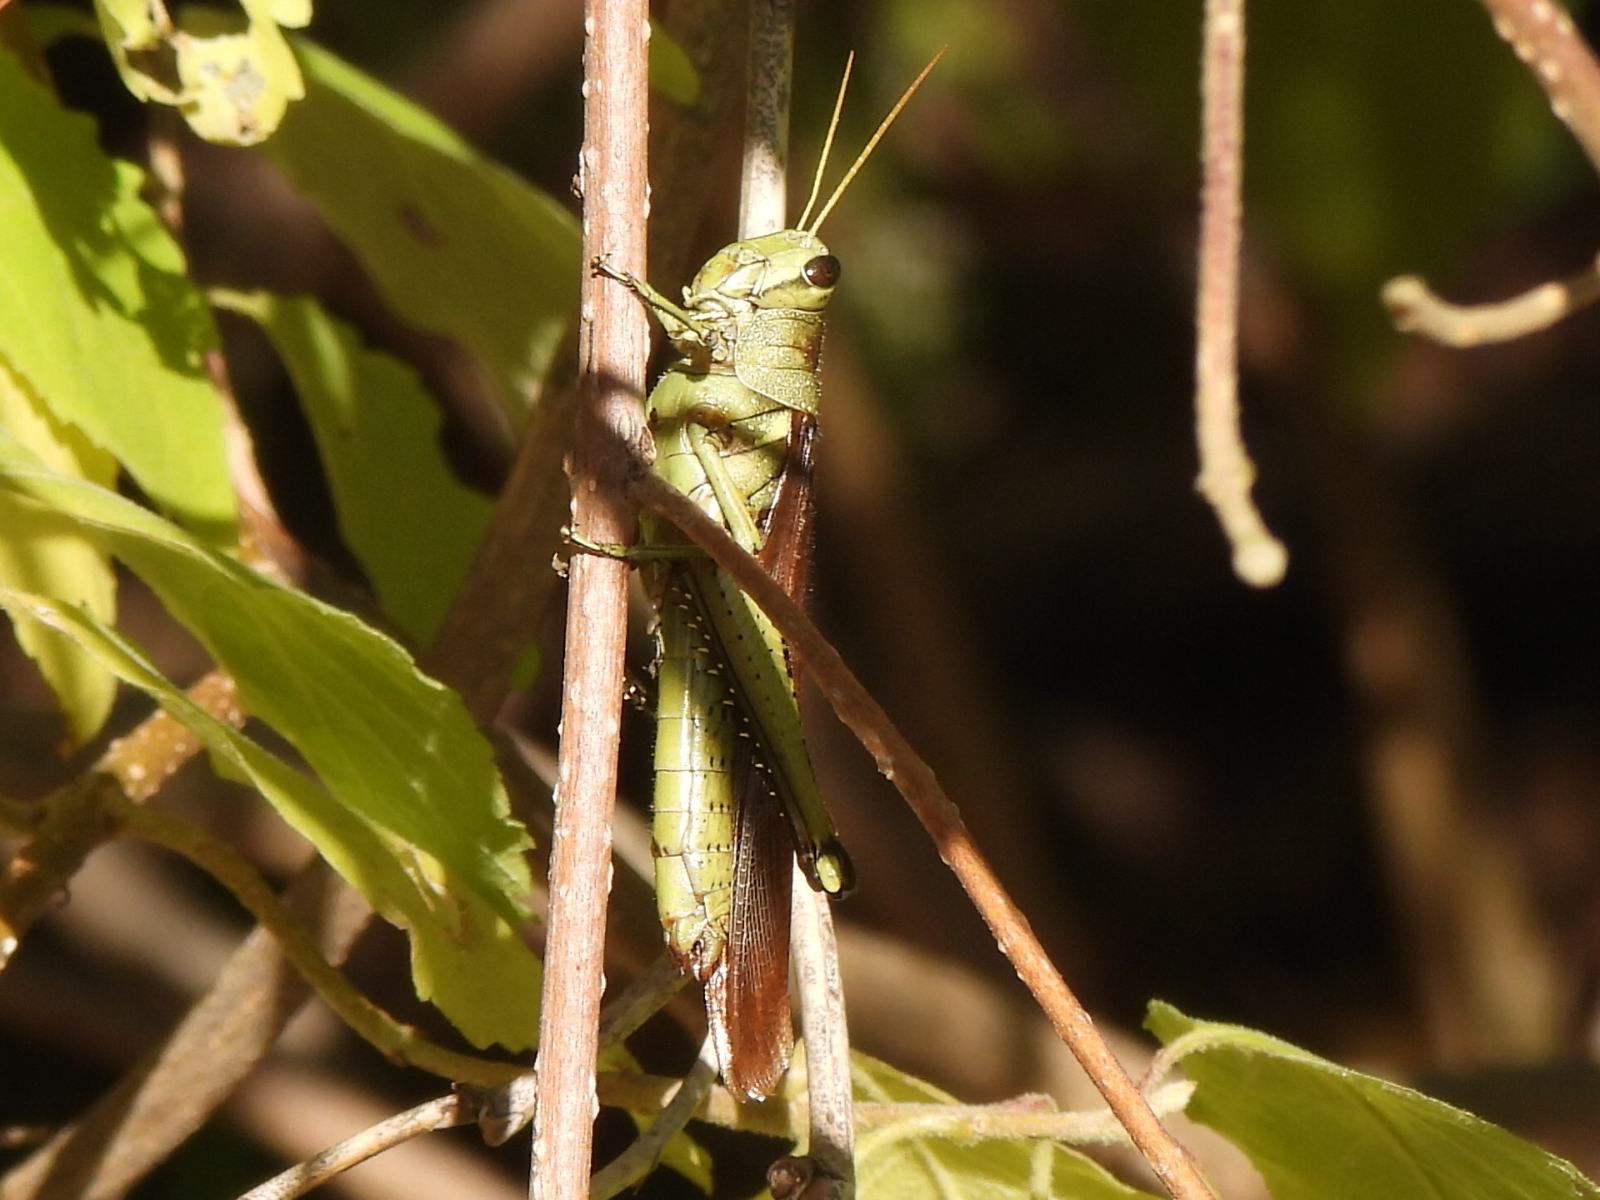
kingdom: Animalia
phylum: Arthropoda
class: Insecta
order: Orthoptera
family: Acrididae
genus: Schistocerca
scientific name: Schistocerca obscura
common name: Obscure bird grasshopper
